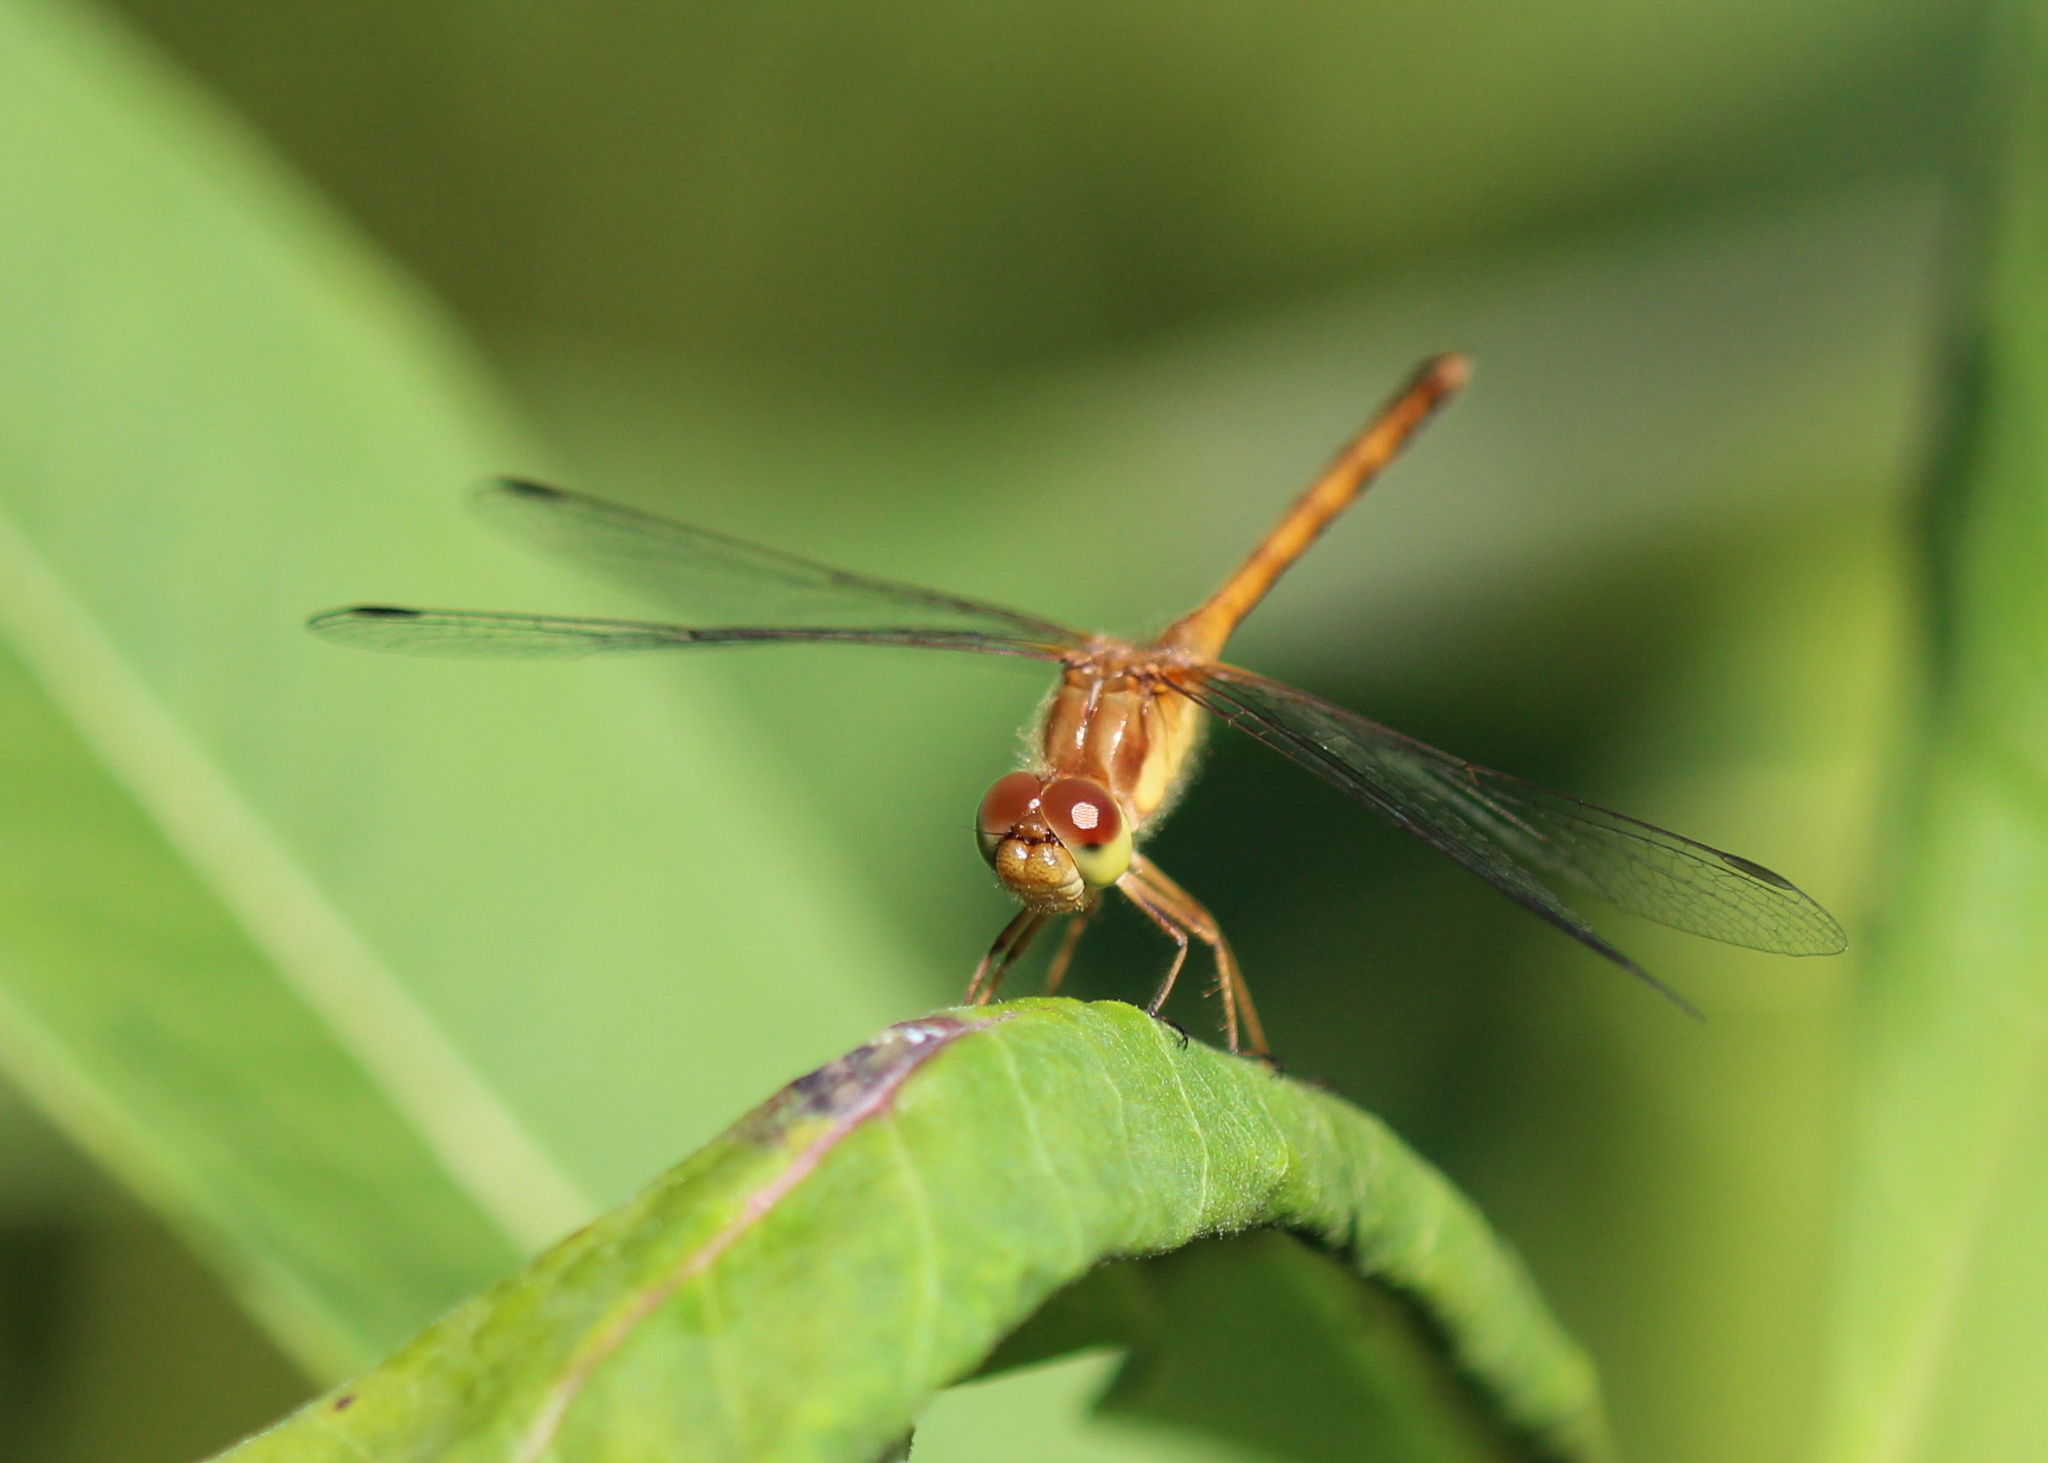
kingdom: Animalia
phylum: Arthropoda
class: Insecta
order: Odonata
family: Libellulidae
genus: Sympetrum
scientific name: Sympetrum vicinum
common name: Autumn meadowhawk
